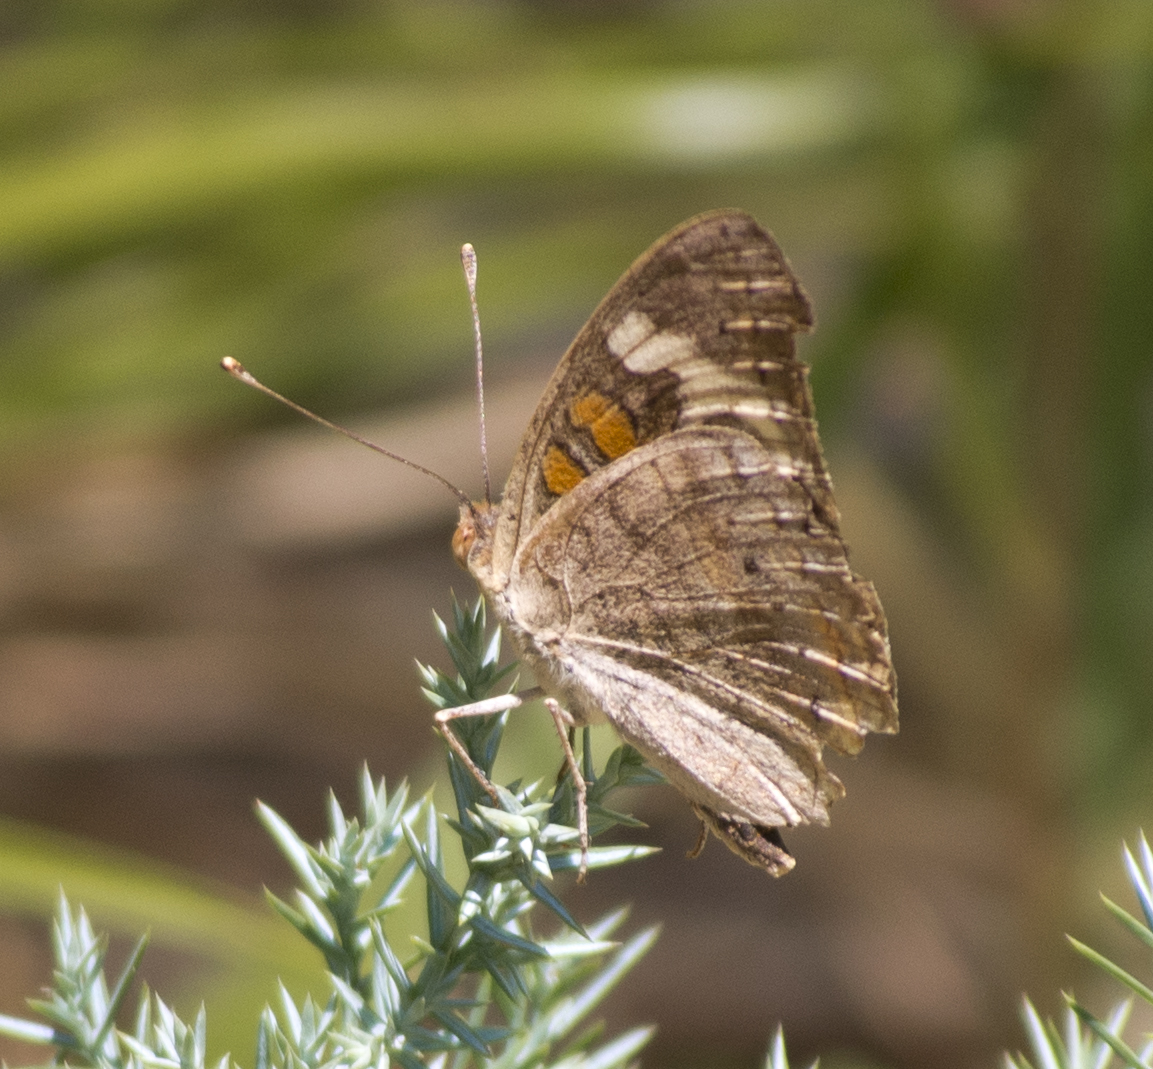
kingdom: Animalia
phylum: Arthropoda
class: Insecta
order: Lepidoptera
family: Nymphalidae
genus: Junonia
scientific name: Junonia grisea
